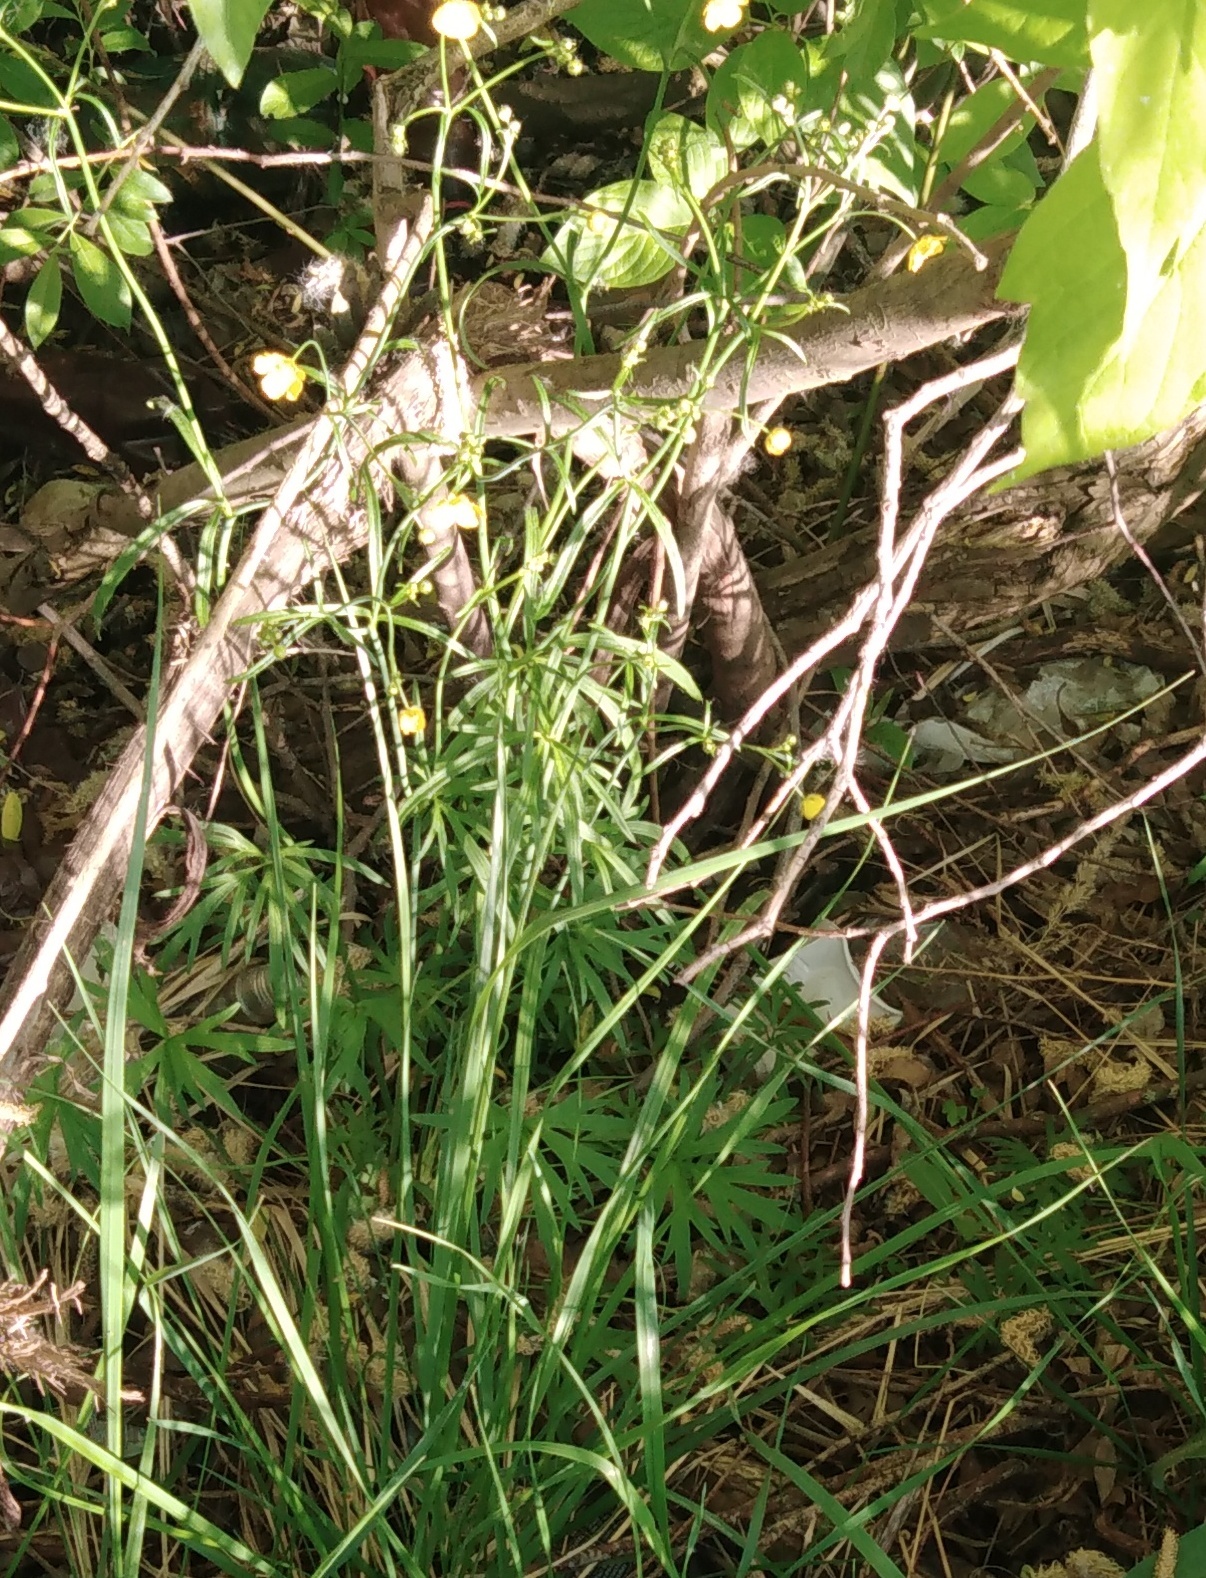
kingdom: Plantae
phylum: Tracheophyta
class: Magnoliopsida
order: Ranunculales
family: Ranunculaceae
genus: Ranunculus
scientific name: Ranunculus acris
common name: Meadow buttercup
